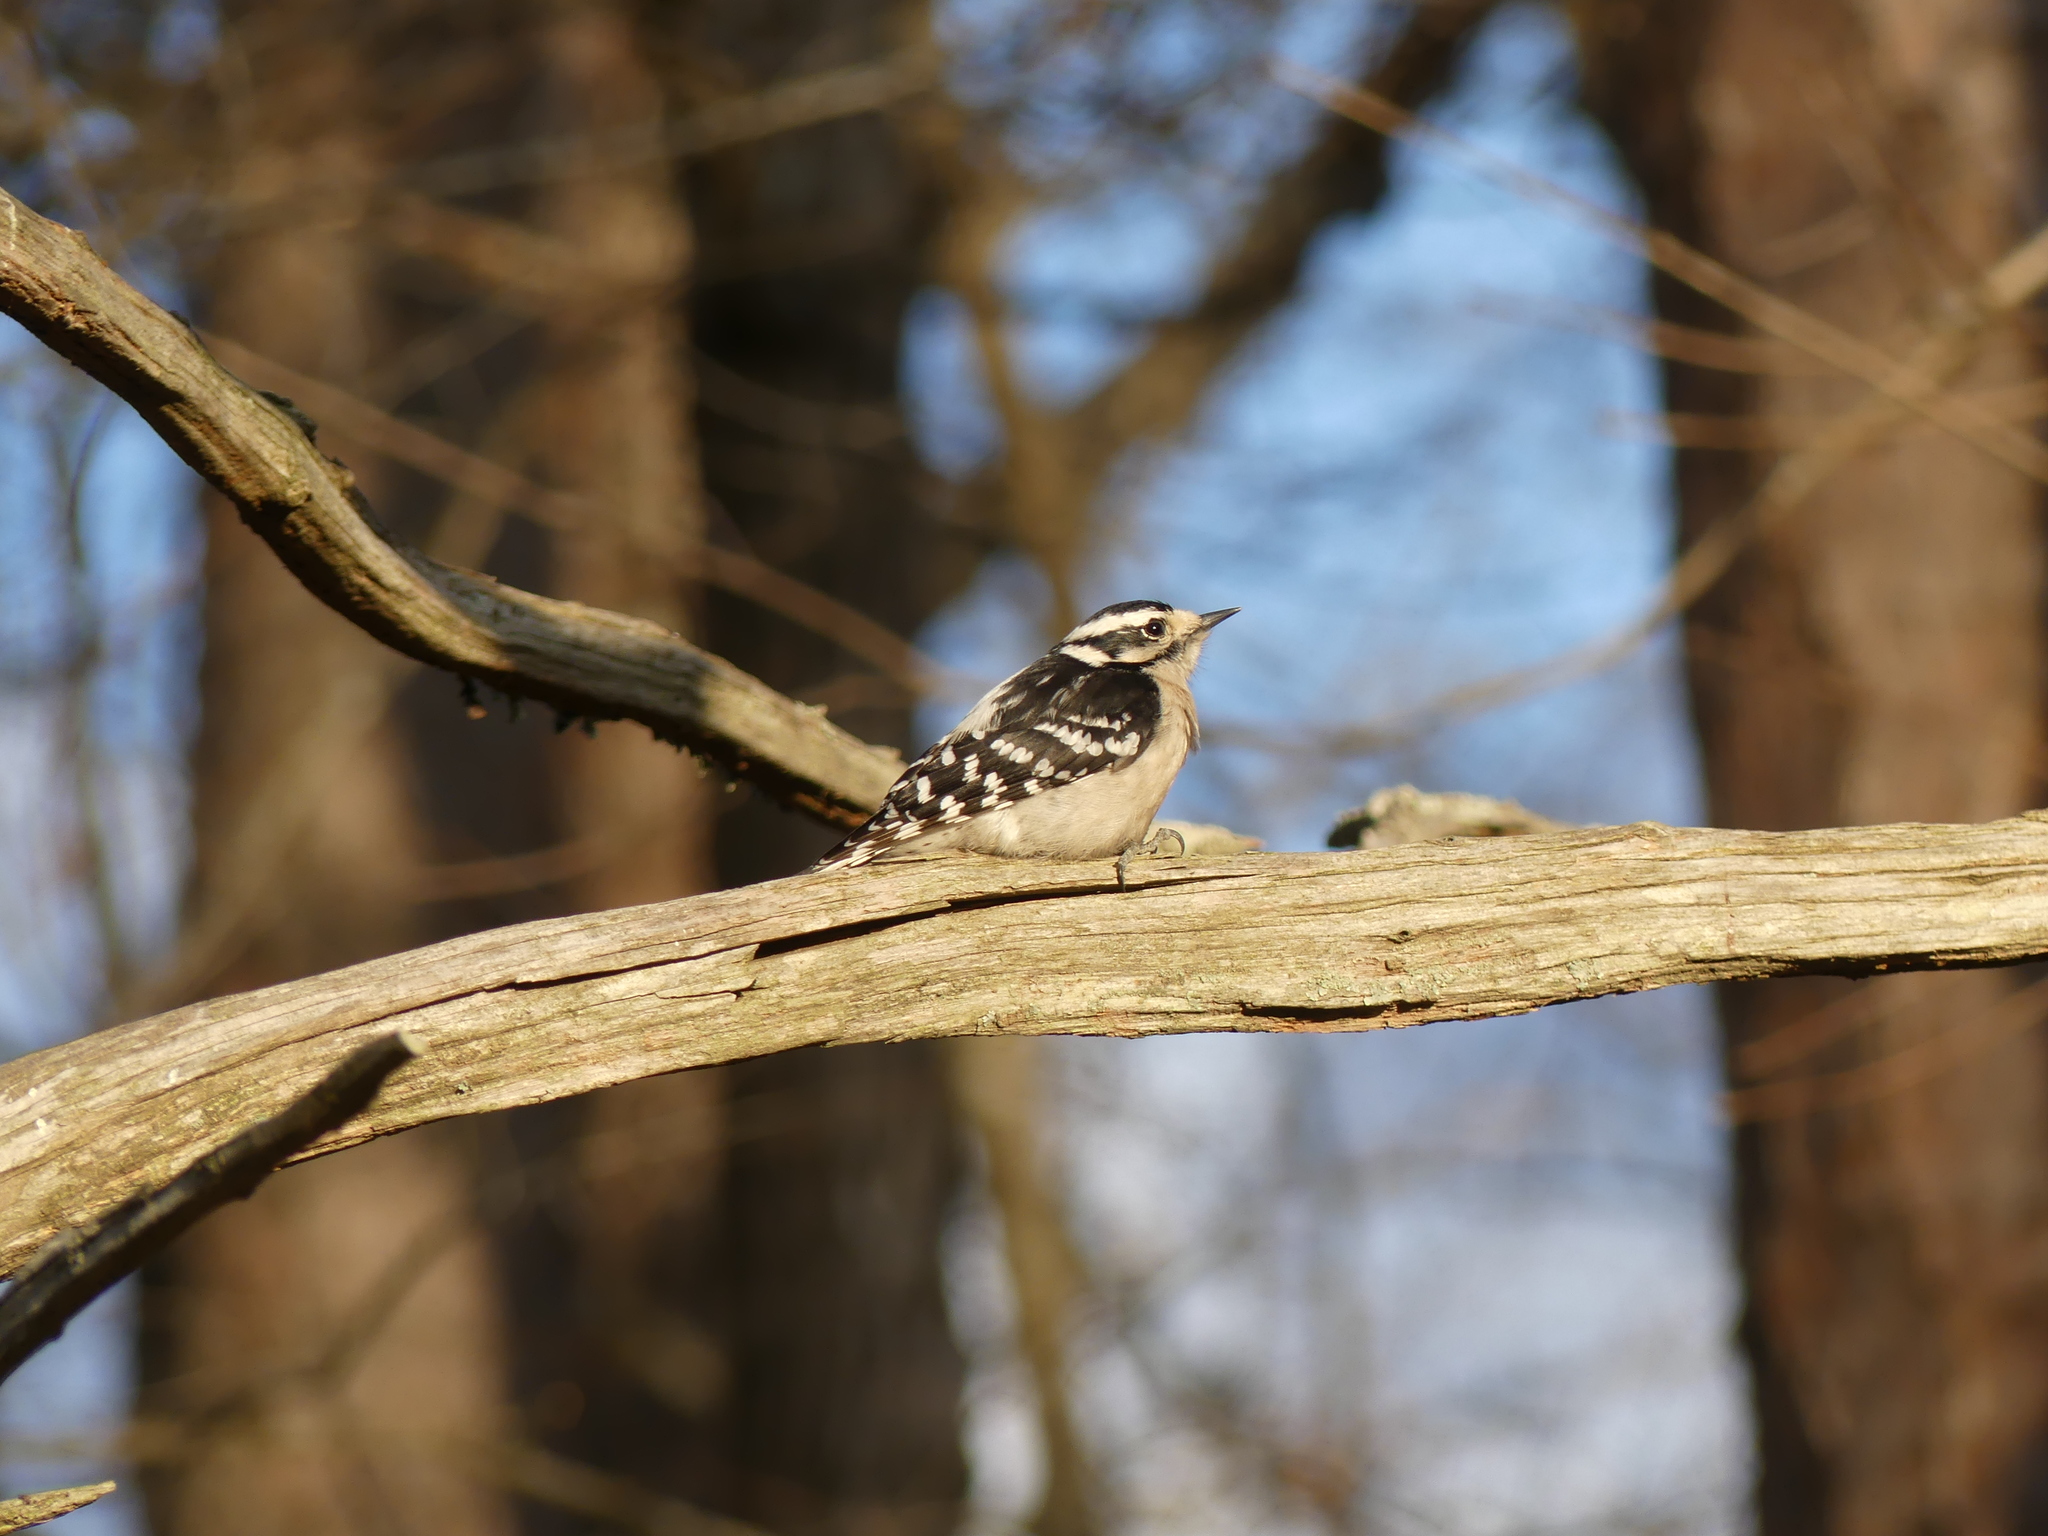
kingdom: Animalia
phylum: Chordata
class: Aves
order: Piciformes
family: Picidae
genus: Dryobates
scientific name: Dryobates pubescens
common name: Downy woodpecker
